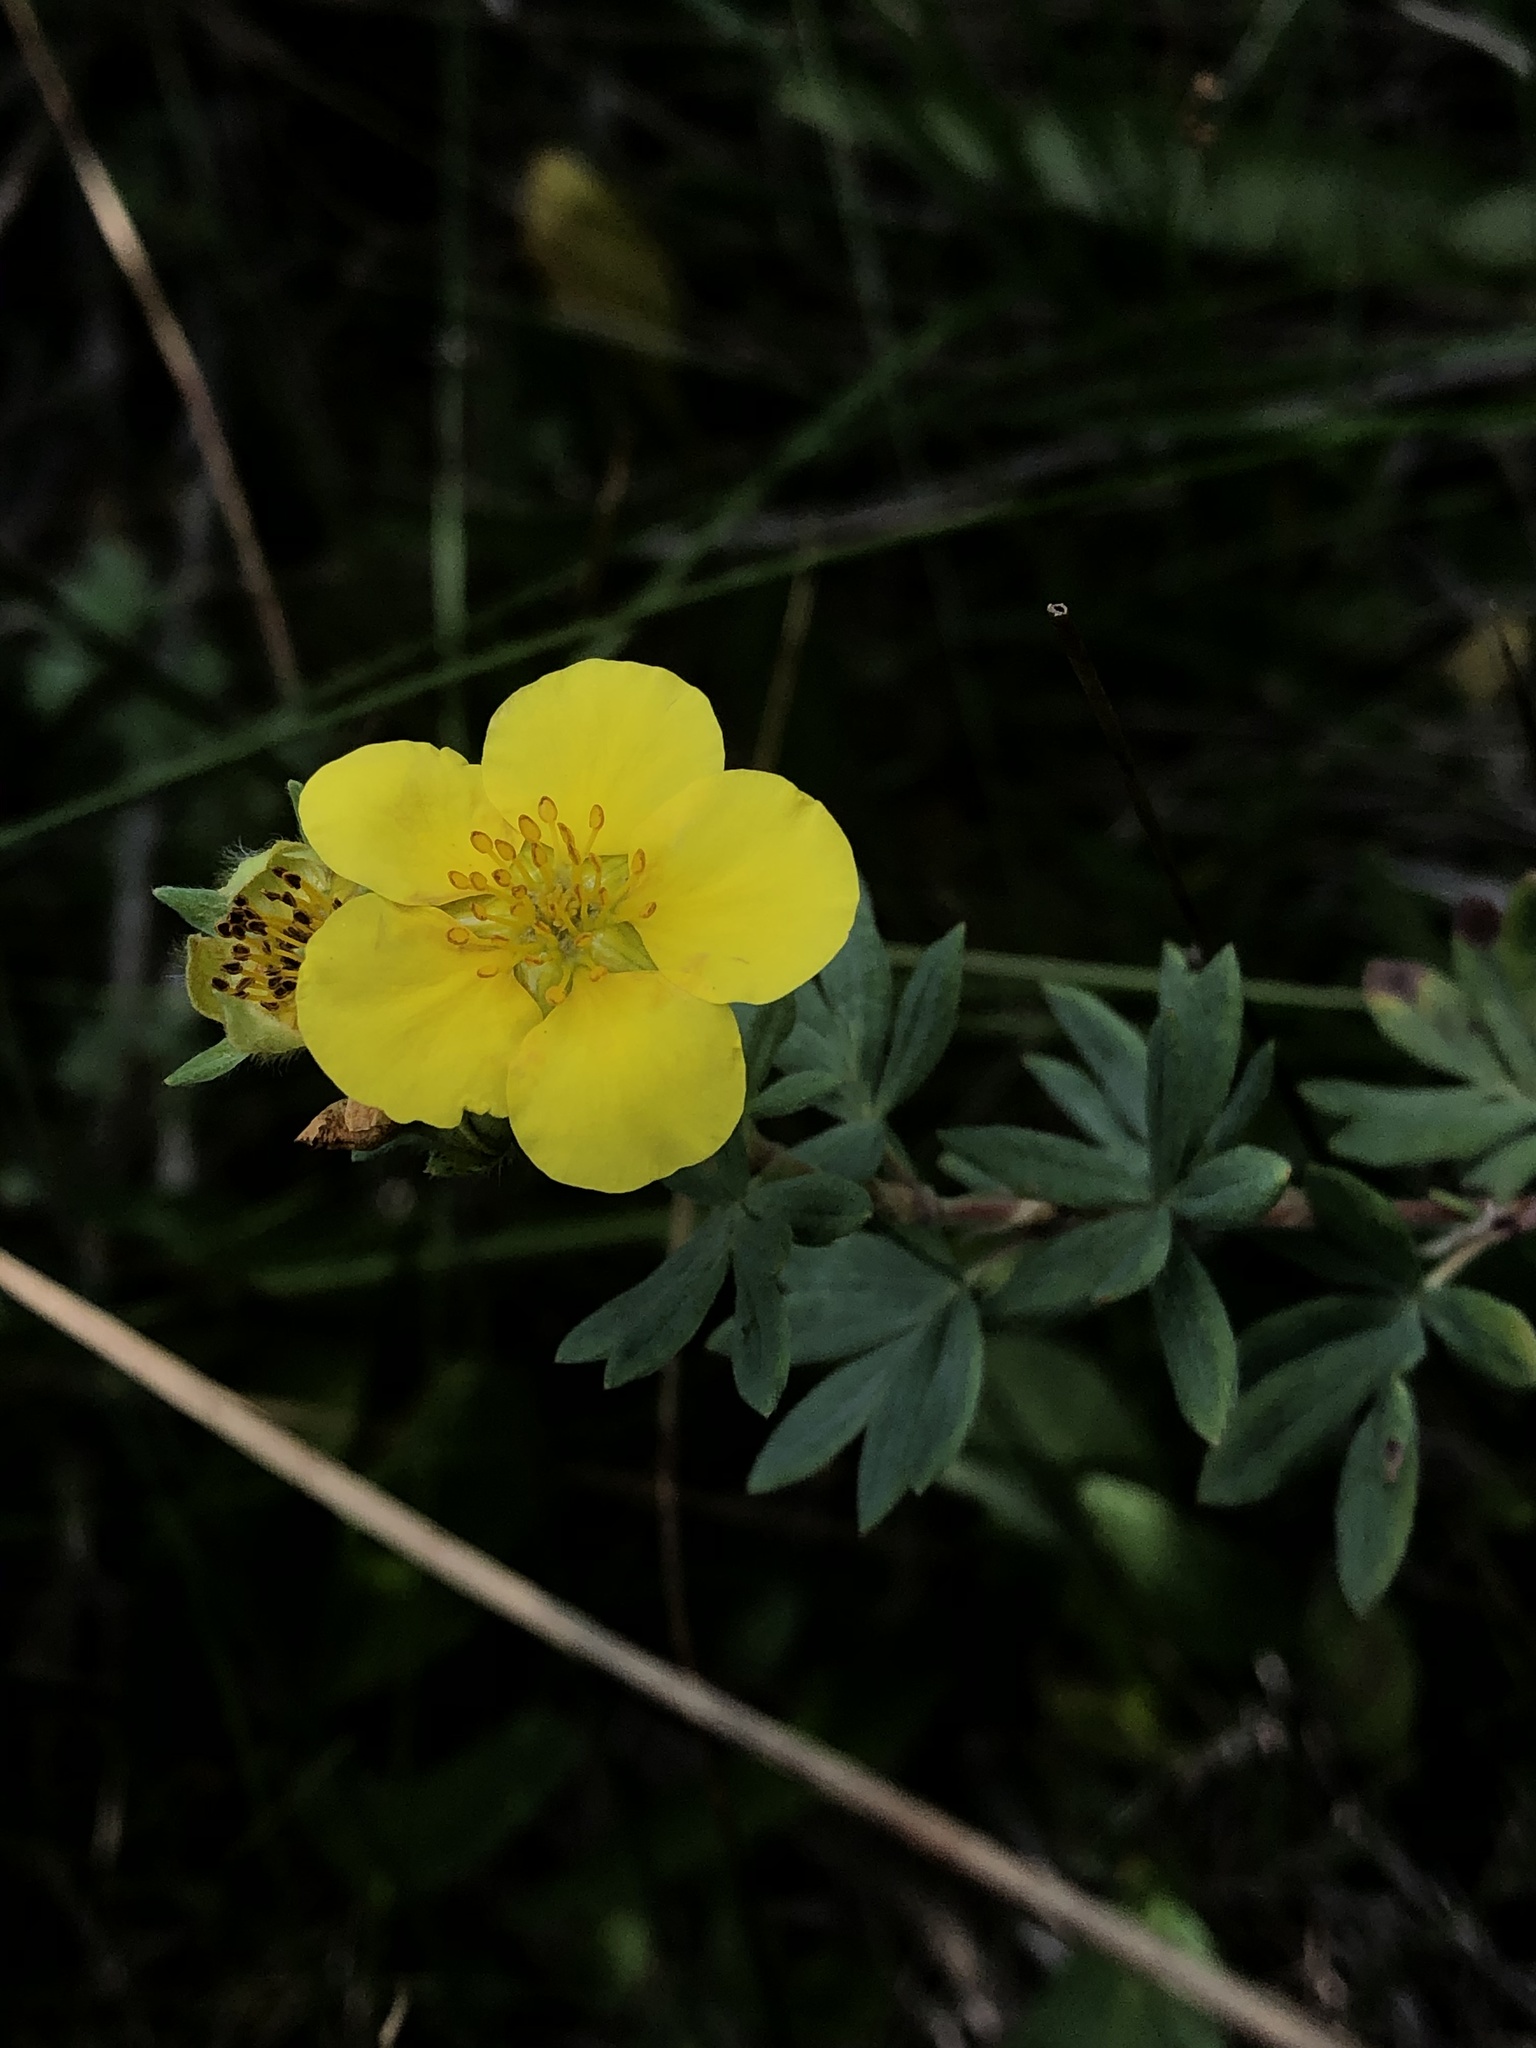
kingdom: Plantae
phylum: Tracheophyta
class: Magnoliopsida
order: Rosales
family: Rosaceae
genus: Dasiphora
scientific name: Dasiphora fruticosa
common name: Shrubby cinquefoil
